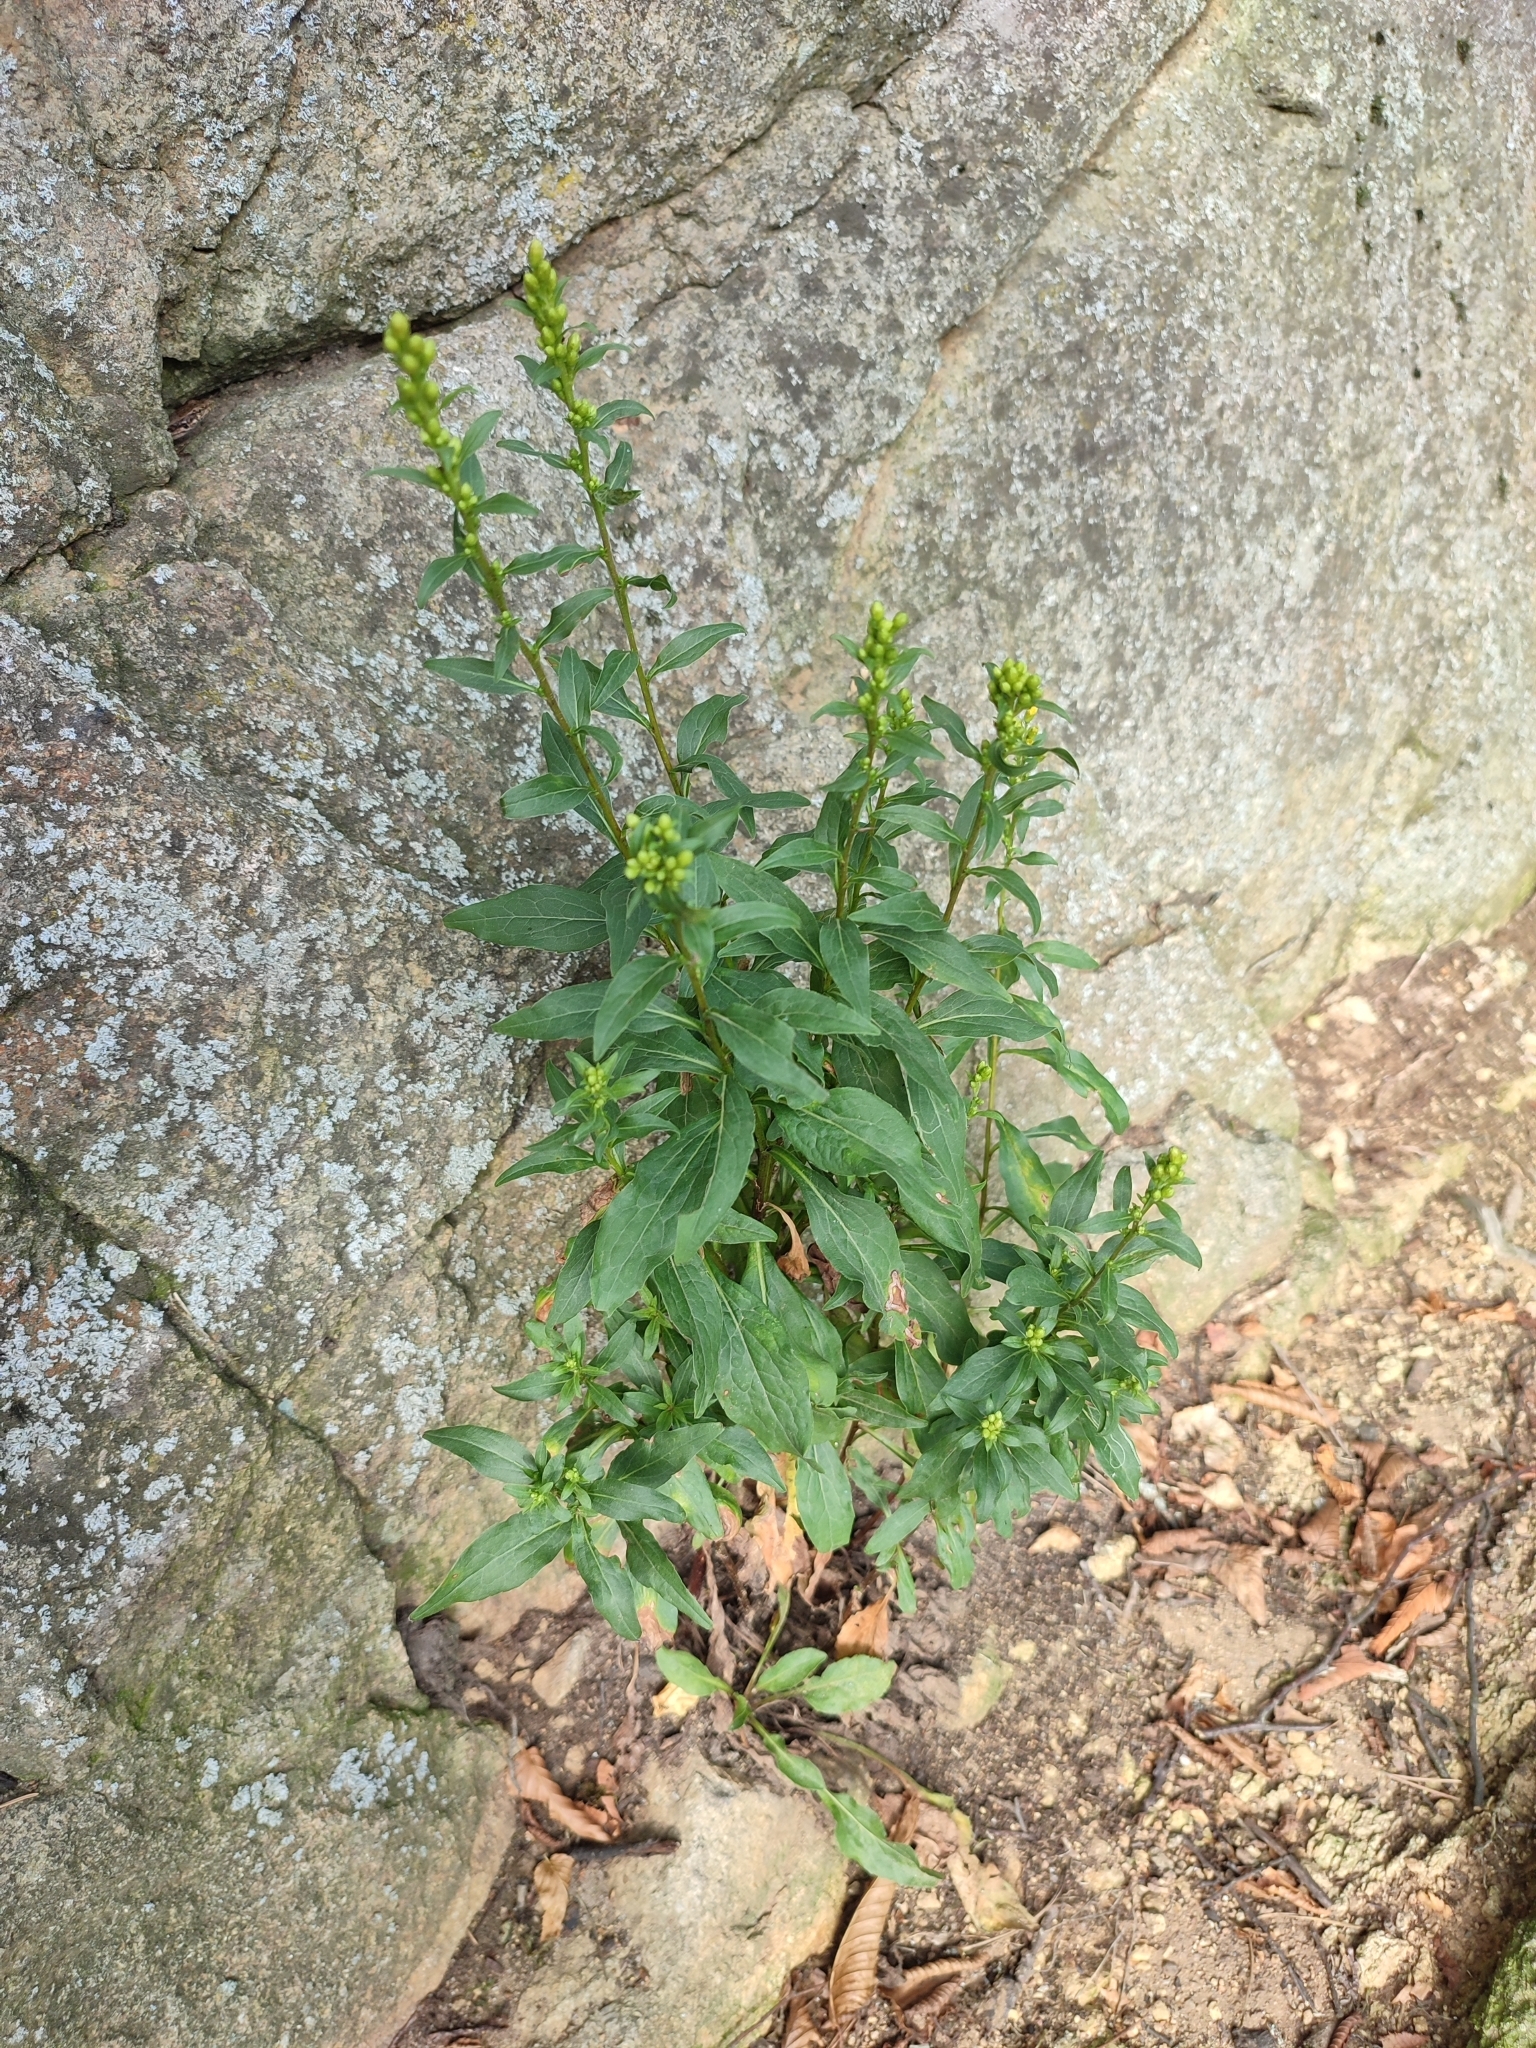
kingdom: Plantae
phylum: Tracheophyta
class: Magnoliopsida
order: Asterales
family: Asteraceae
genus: Solidago
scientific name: Solidago virgaurea
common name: Goldenrod
